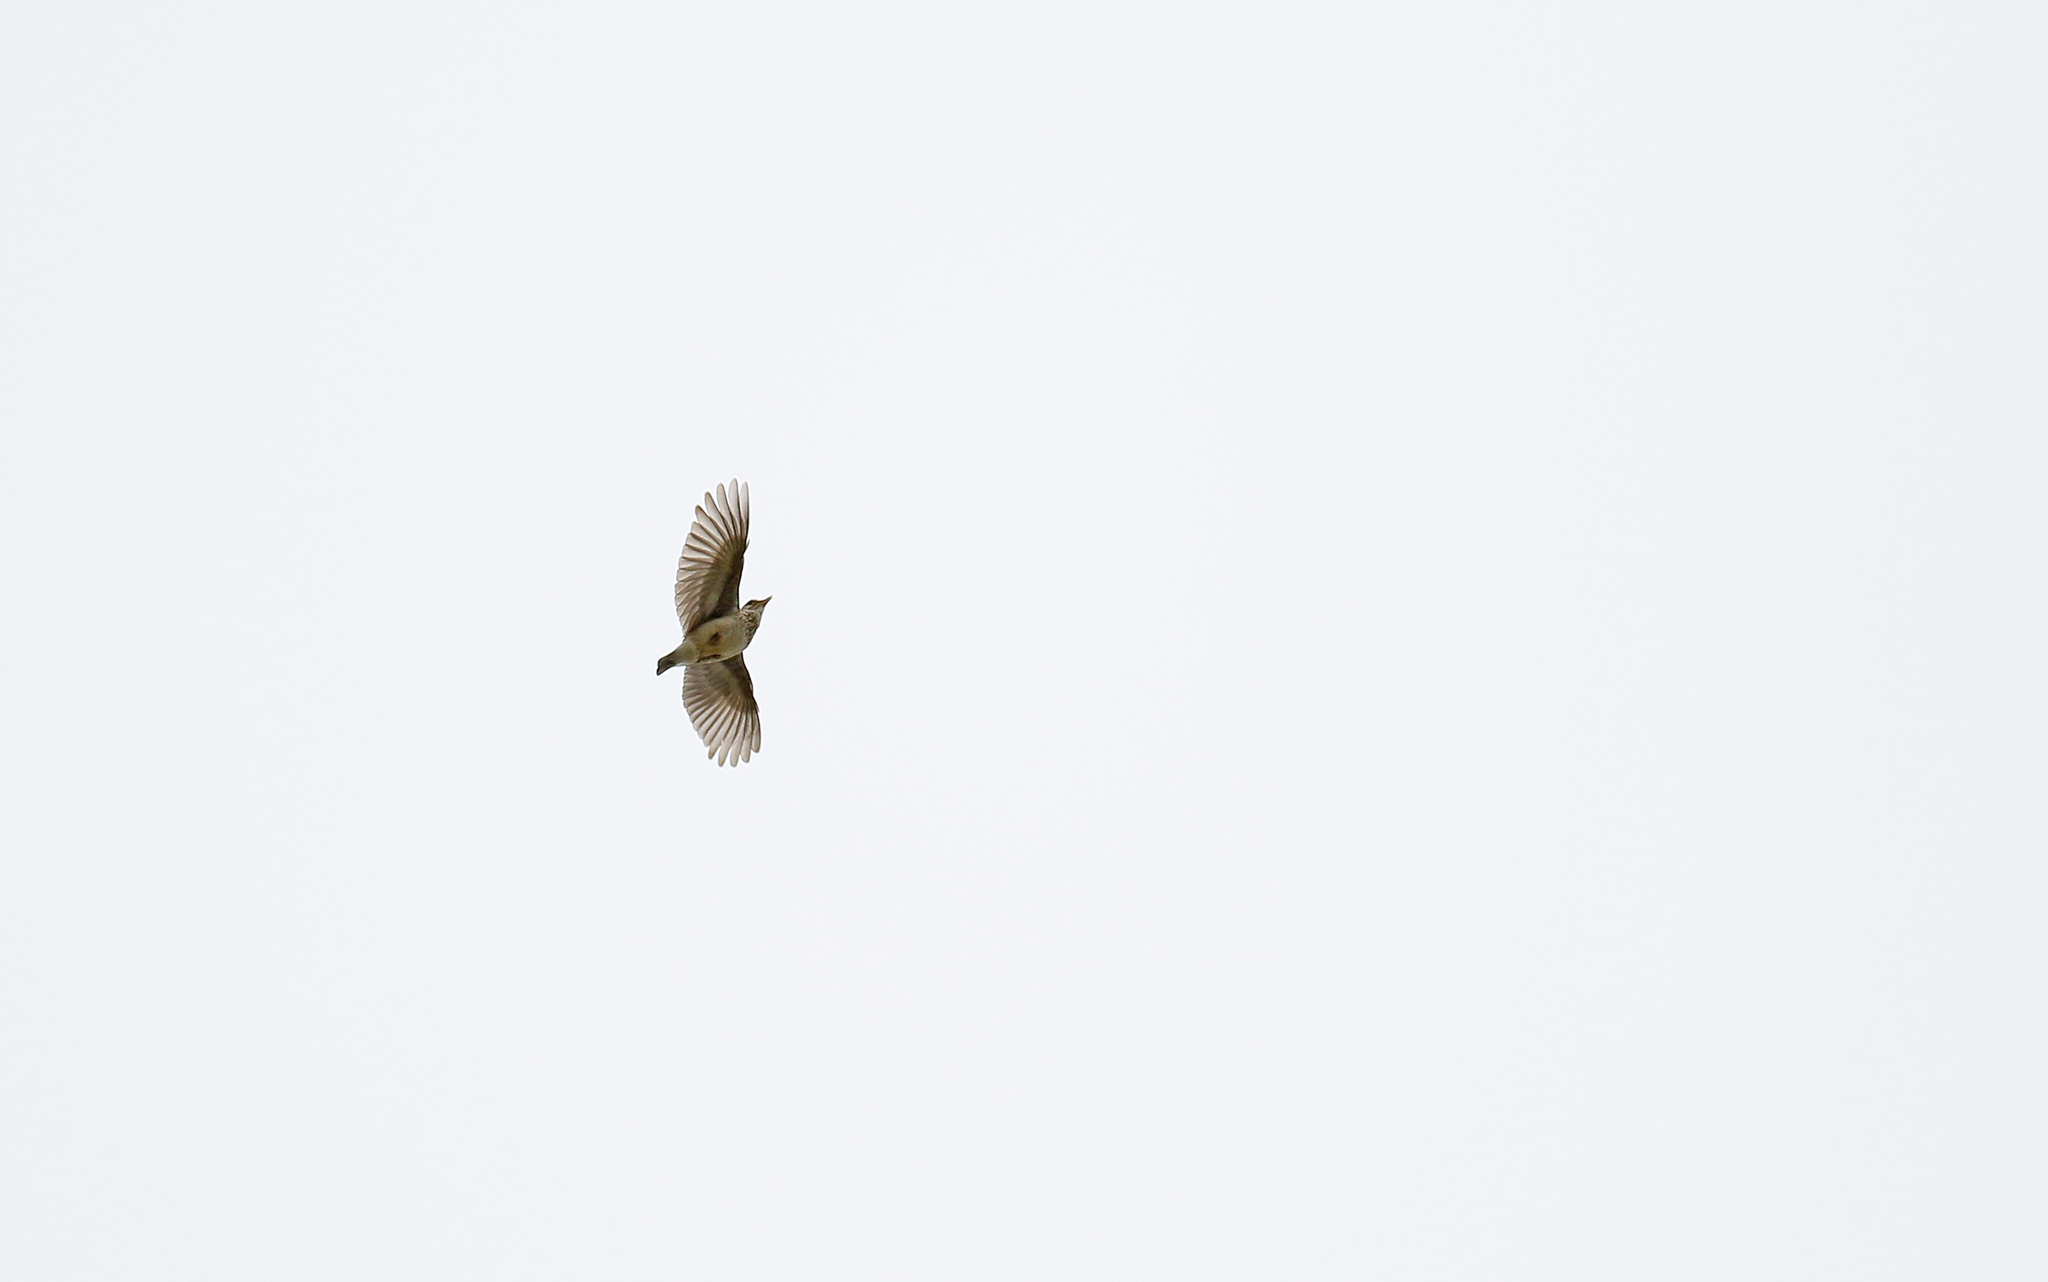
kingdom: Animalia
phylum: Chordata
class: Aves
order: Passeriformes
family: Alaudidae
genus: Lullula
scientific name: Lullula arborea
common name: Woodlark
